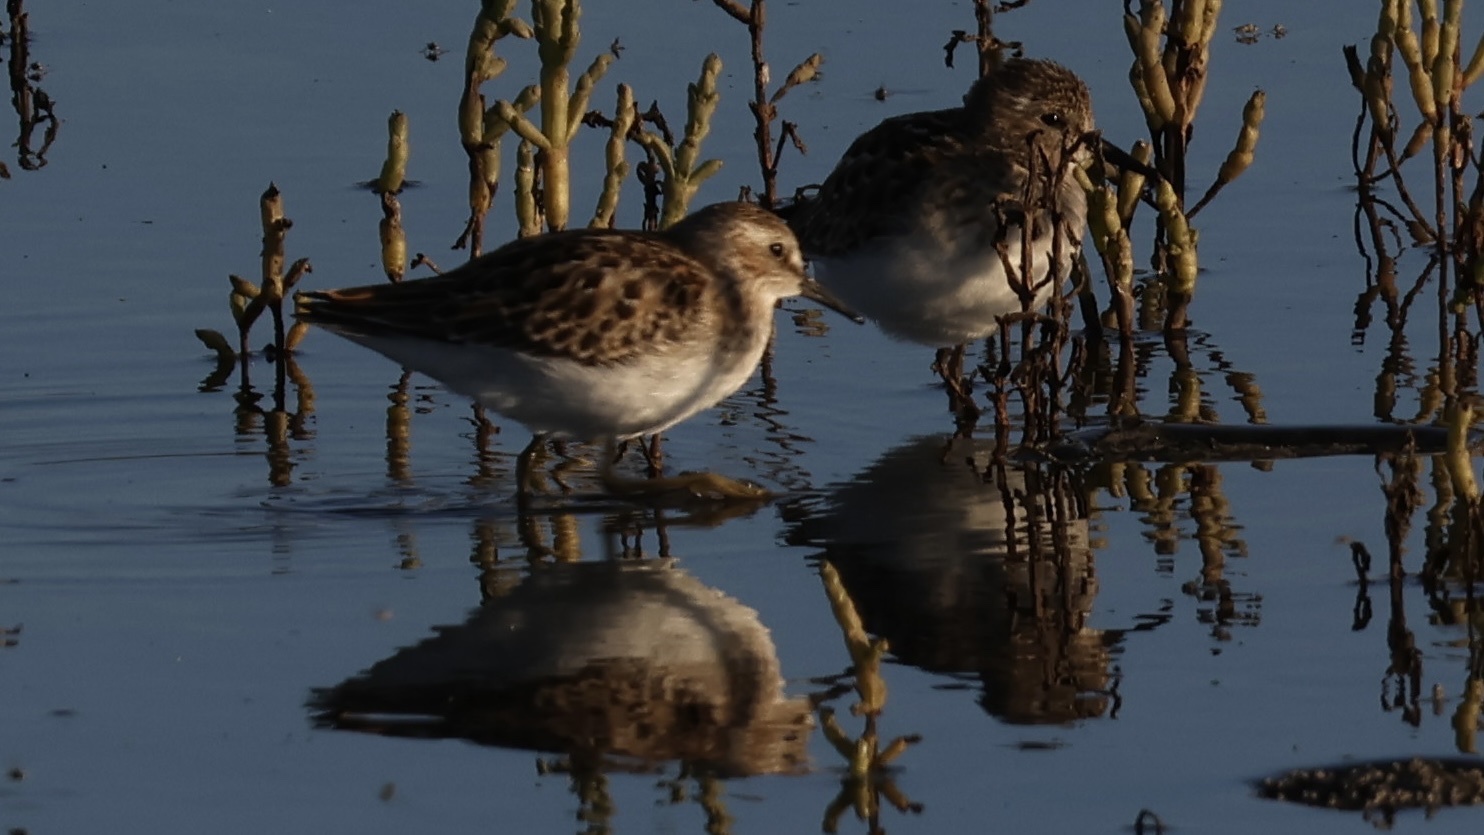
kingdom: Animalia
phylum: Chordata
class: Aves
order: Charadriiformes
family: Scolopacidae
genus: Calidris
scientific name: Calidris minutilla
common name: Least sandpiper
